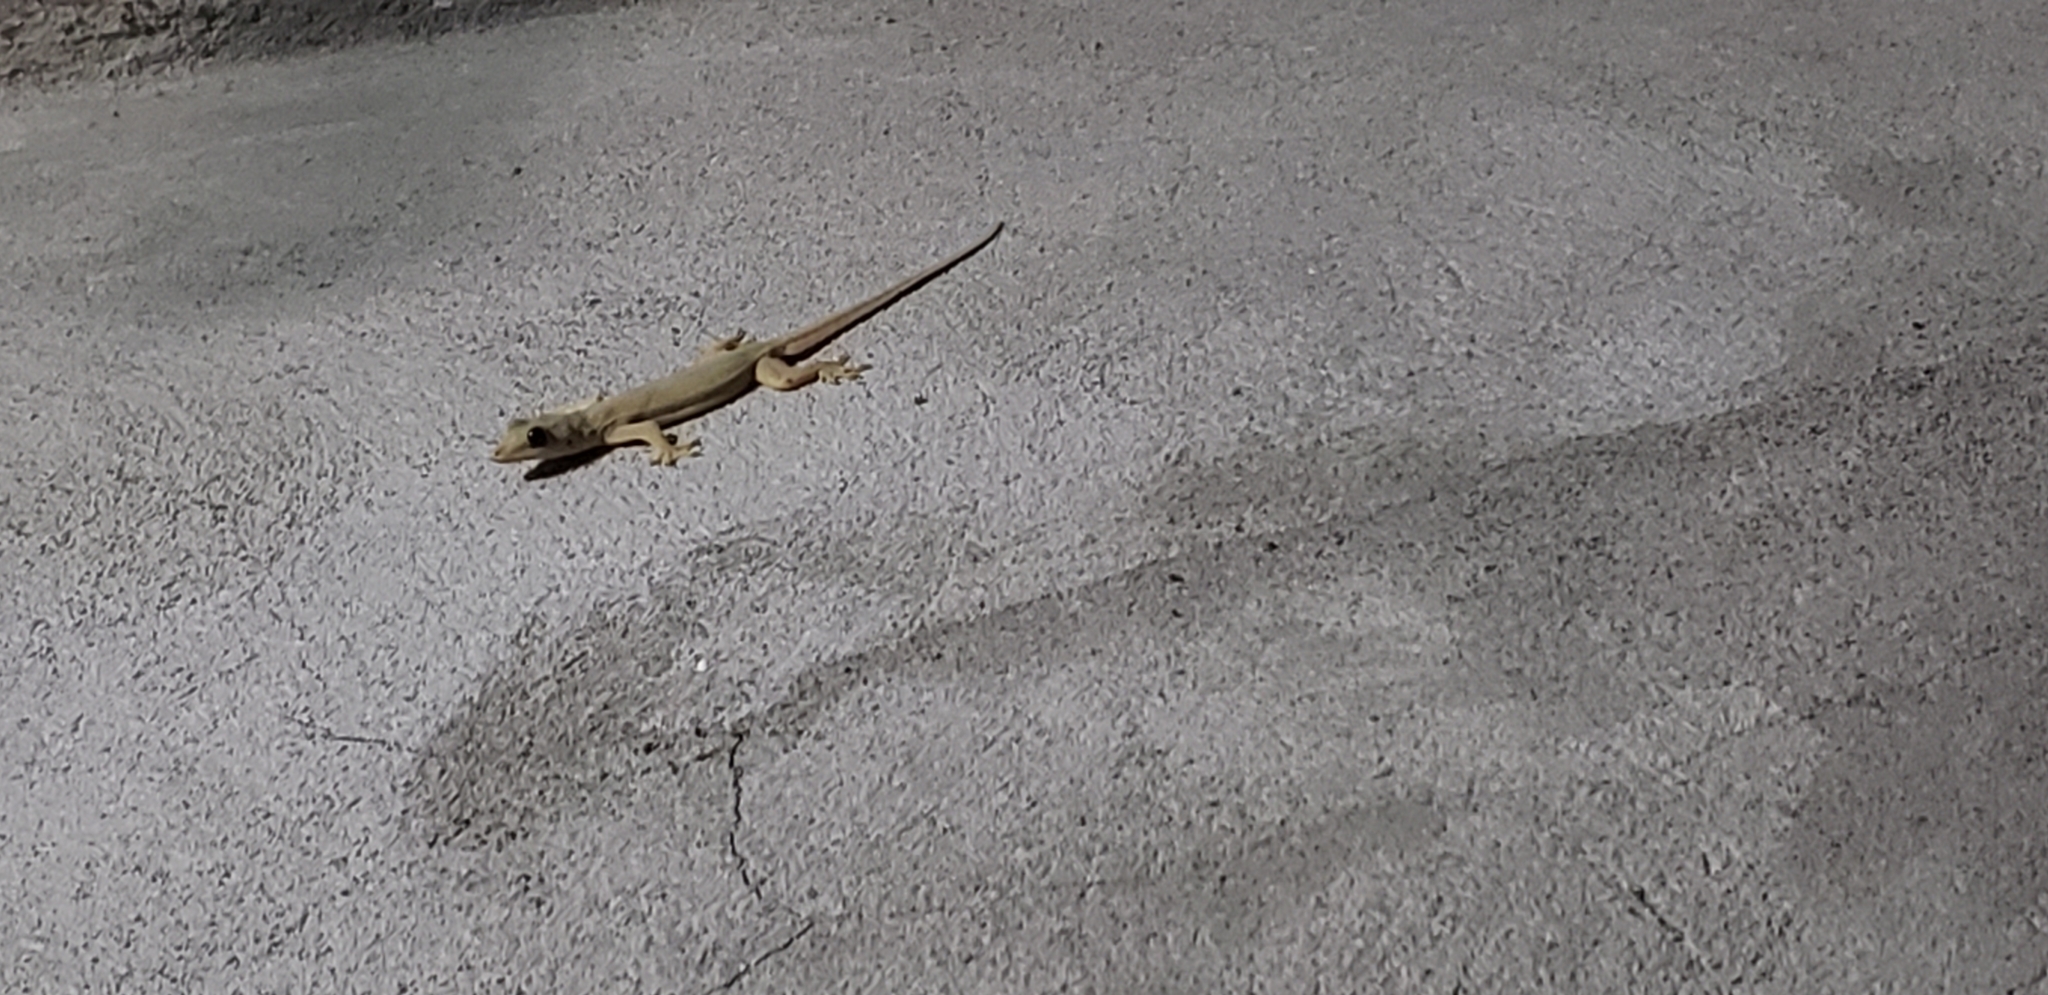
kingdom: Animalia
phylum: Chordata
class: Squamata
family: Gekkonidae
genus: Hemidactylus
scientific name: Hemidactylus platyurus
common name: Flat-tailed house gecko
